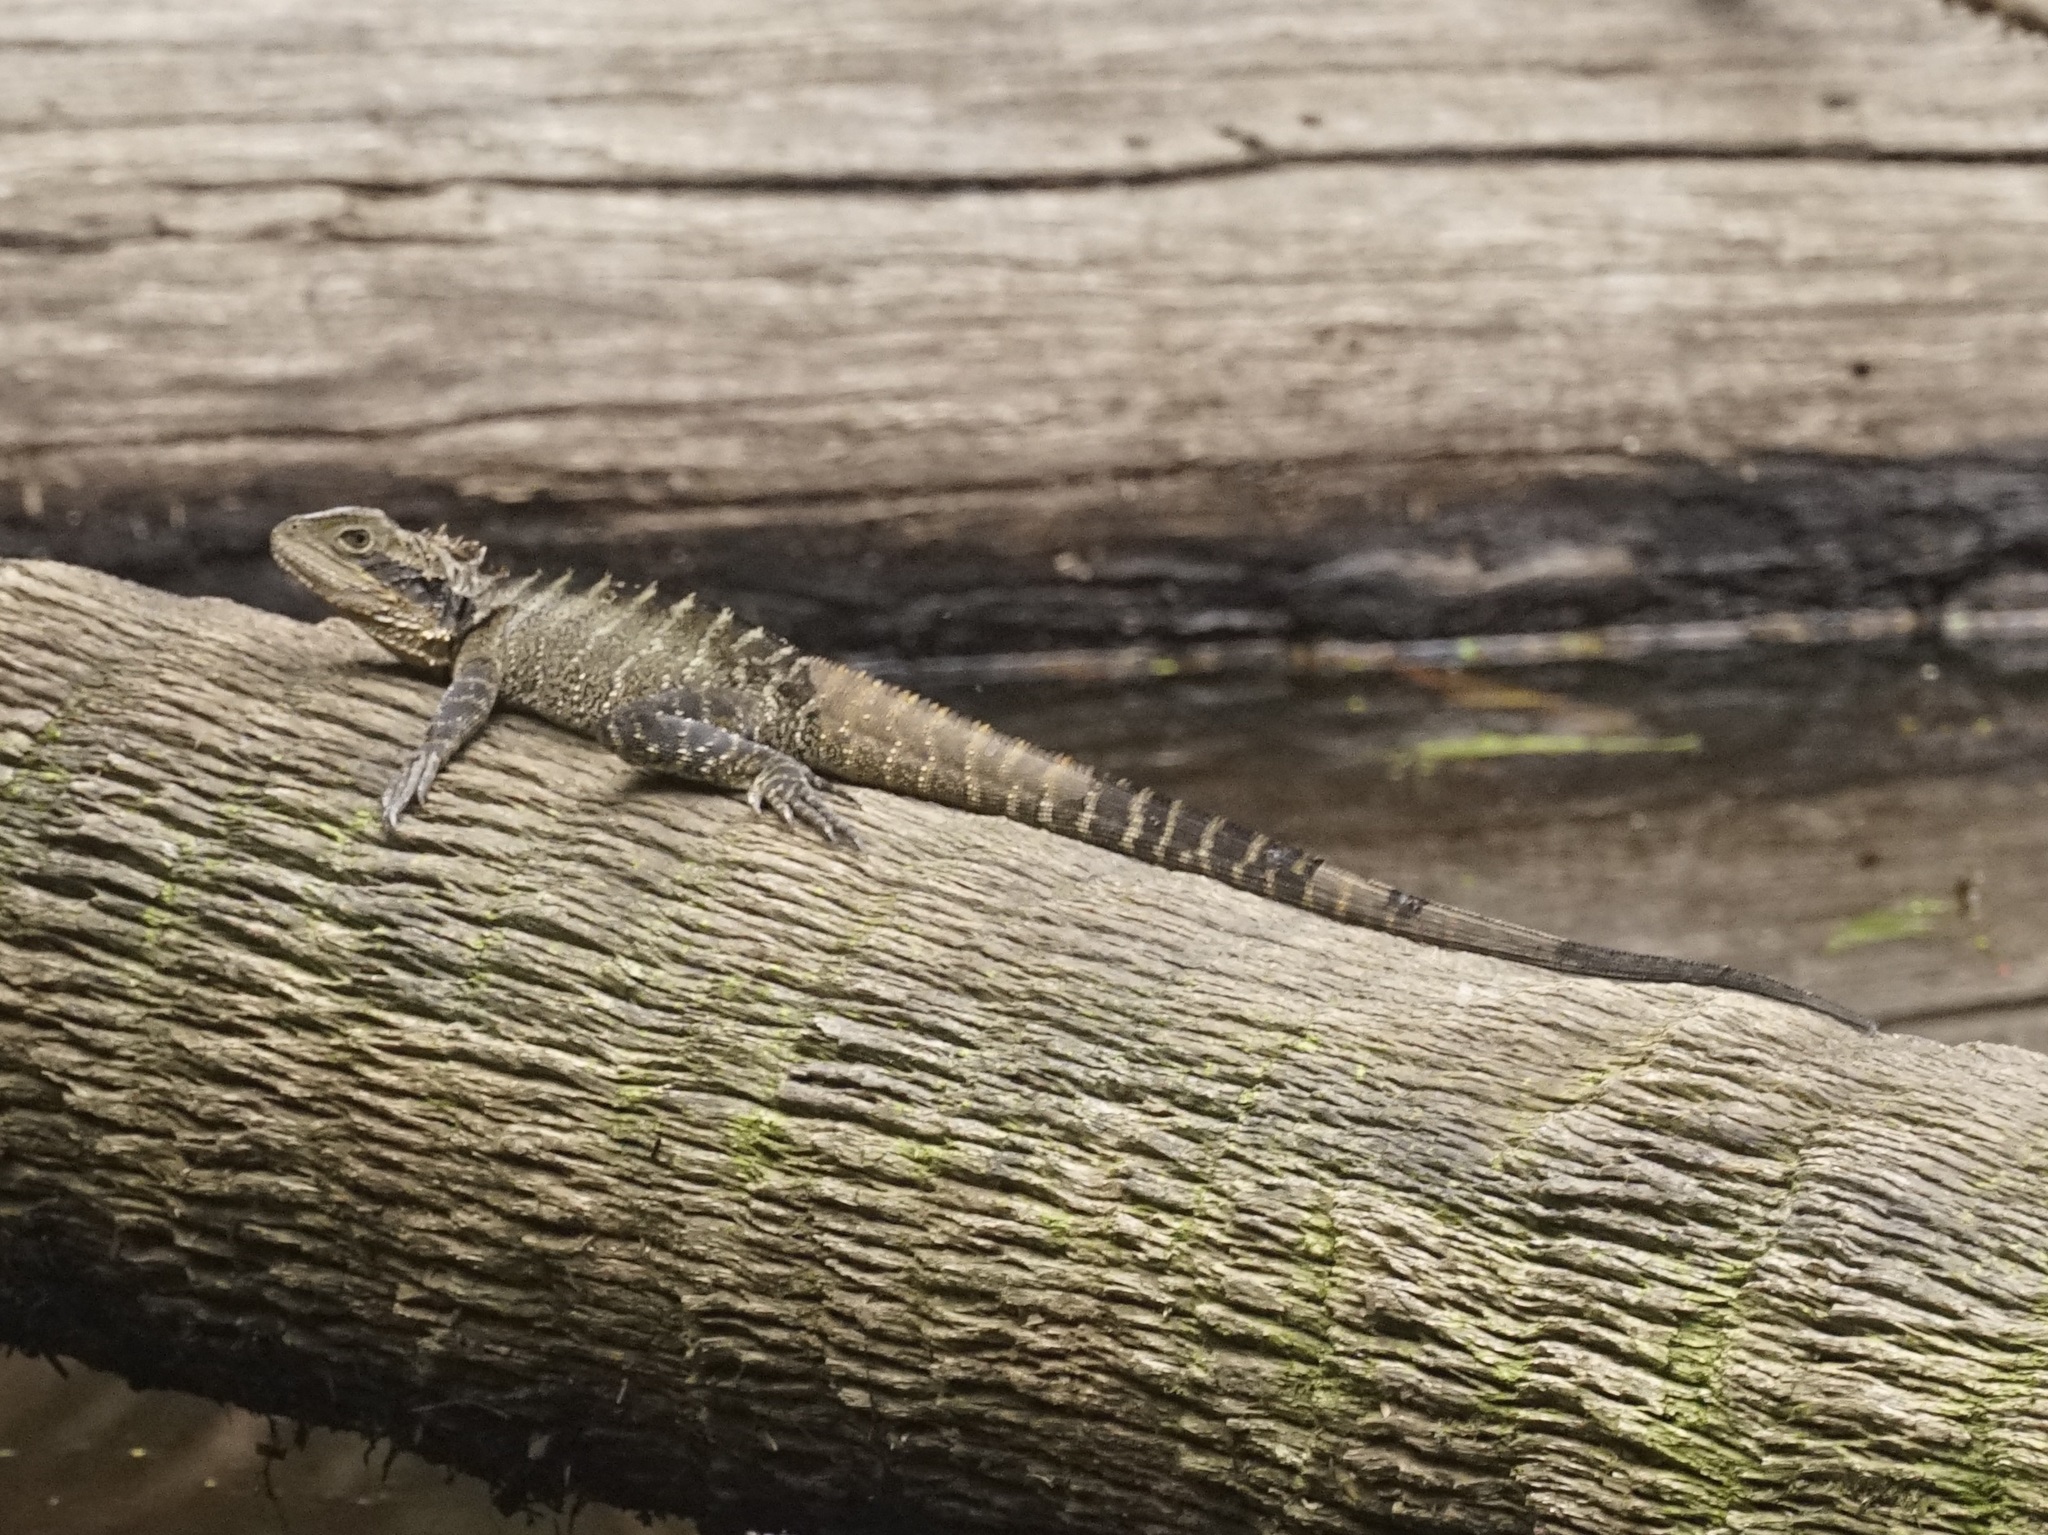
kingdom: Animalia
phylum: Chordata
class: Squamata
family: Agamidae
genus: Intellagama
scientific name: Intellagama lesueurii
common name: Eastern water dragon
